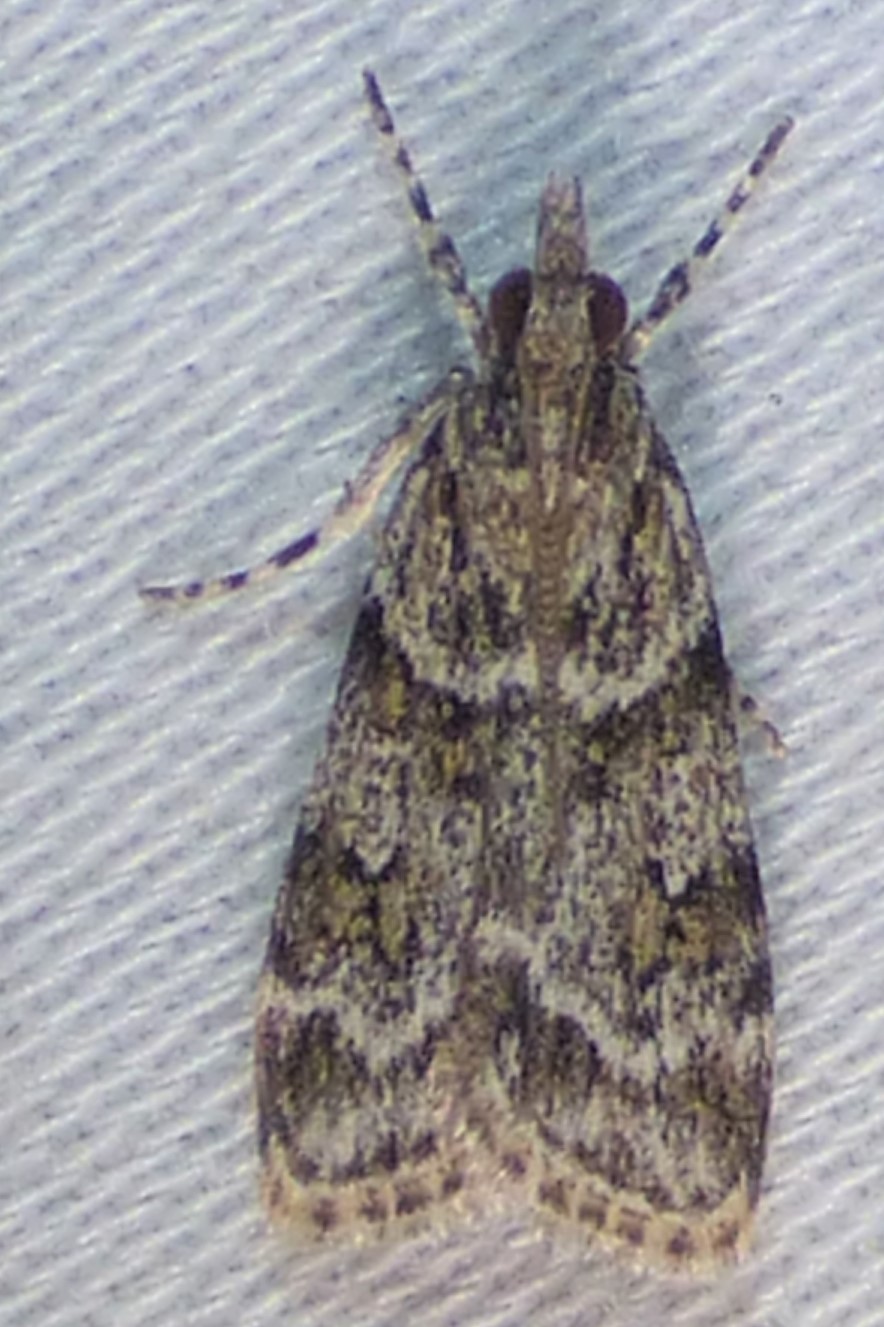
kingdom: Animalia
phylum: Arthropoda
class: Insecta
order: Lepidoptera
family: Crambidae
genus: Scoparia
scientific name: Scoparia biplagialis
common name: Double-striped scoparia moth
